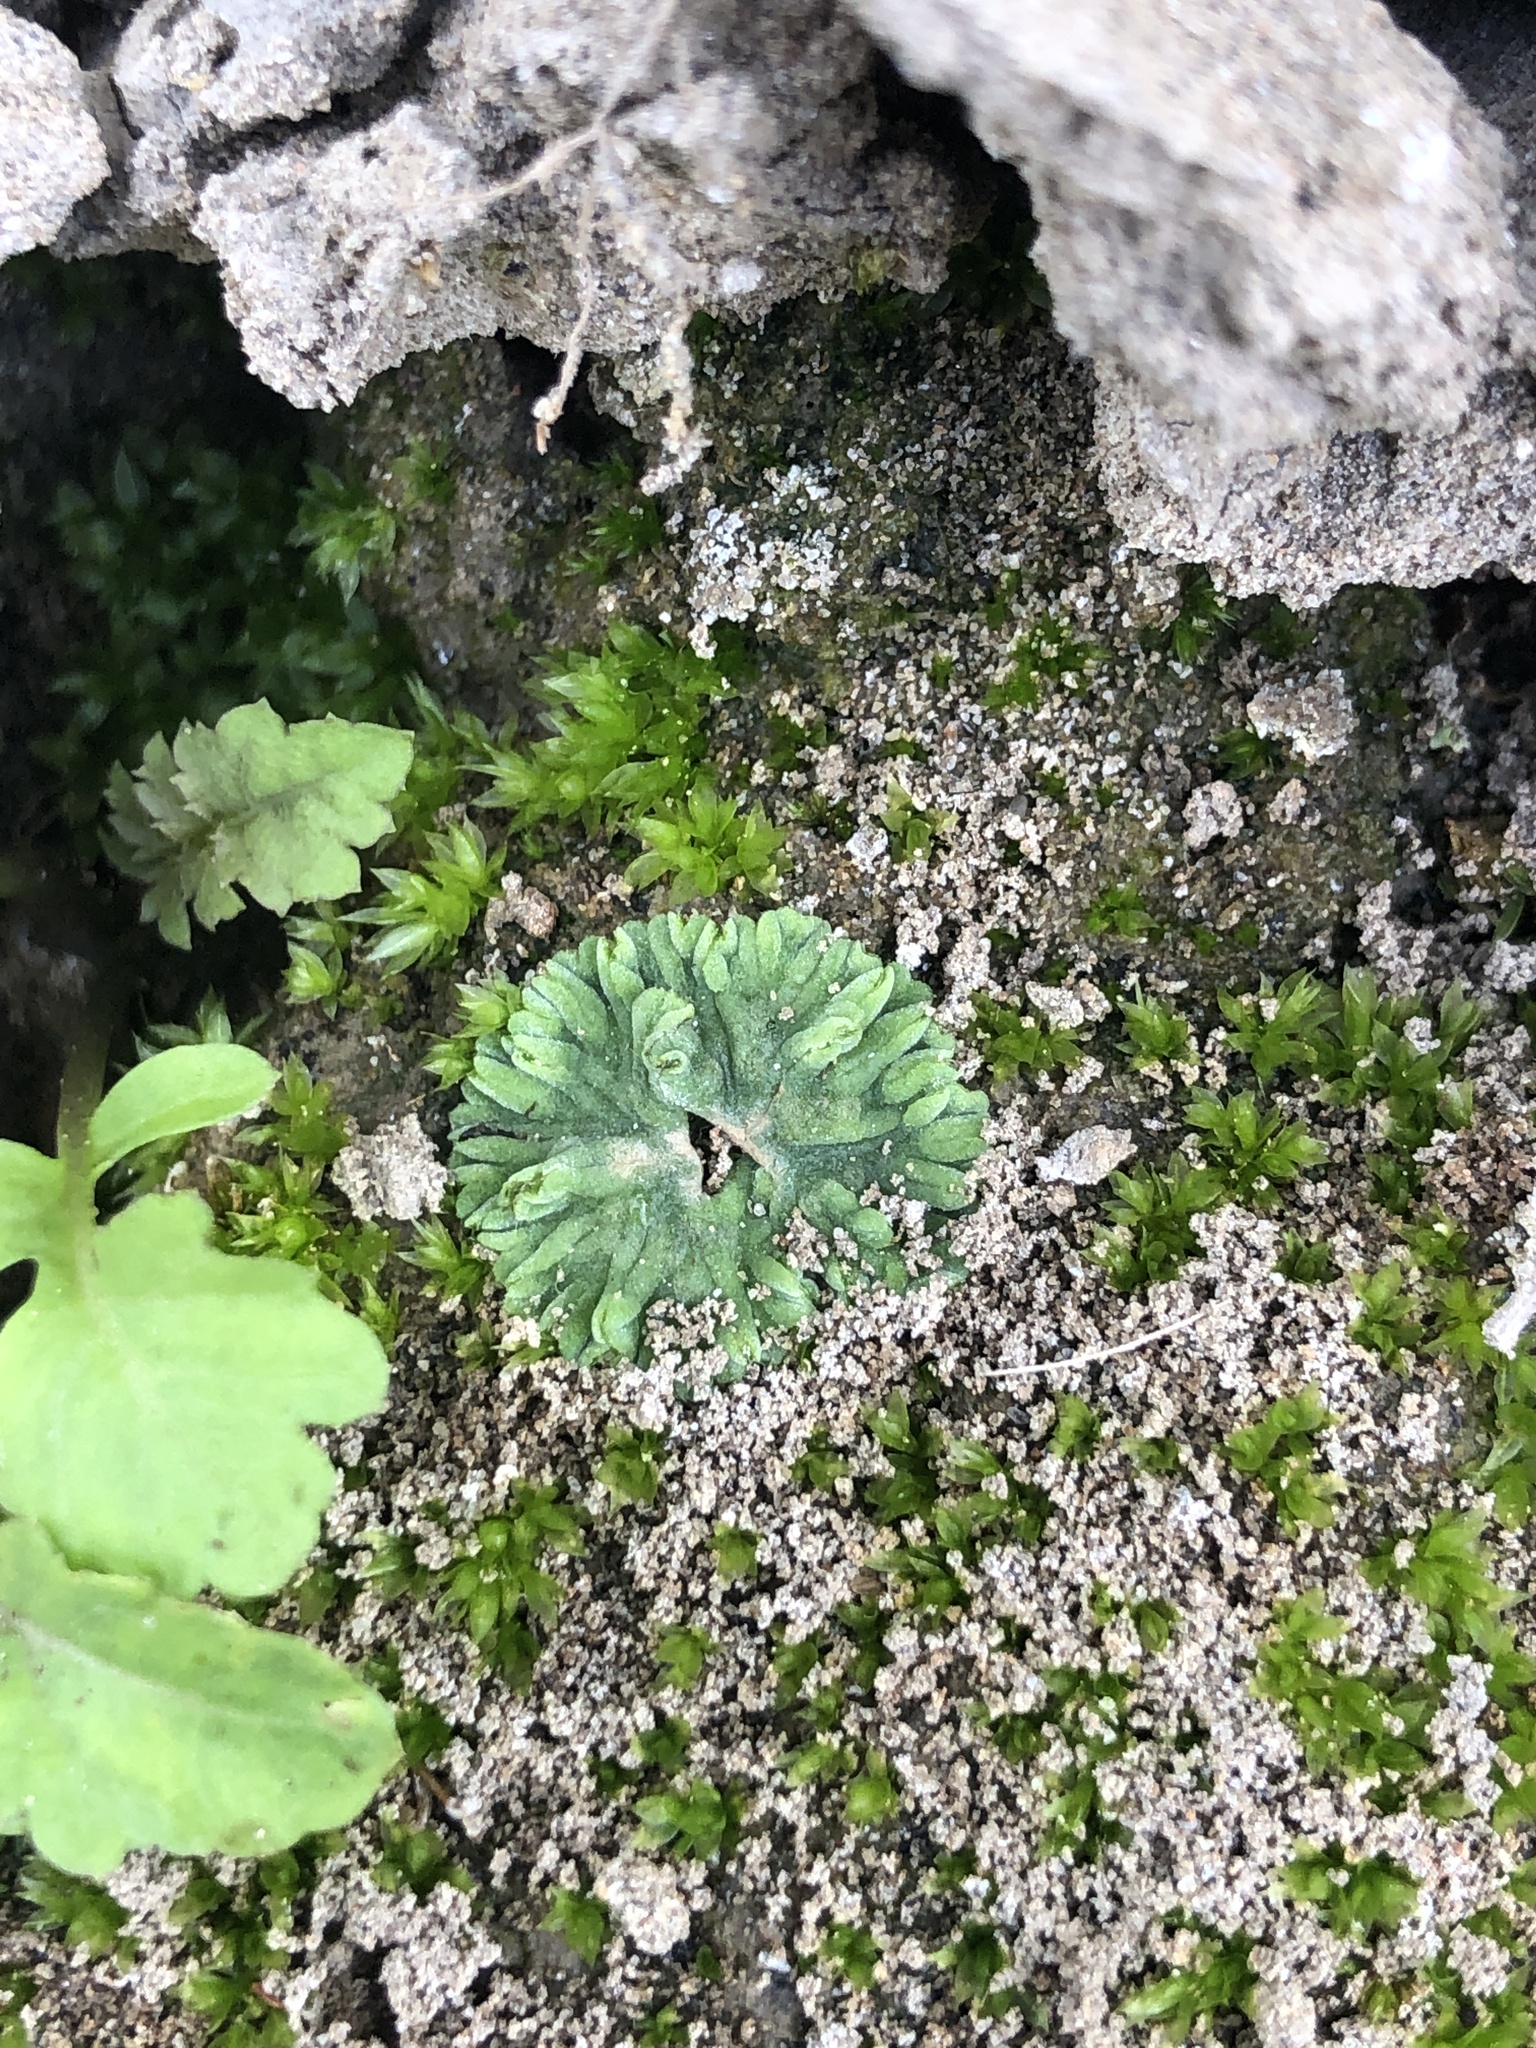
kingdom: Plantae
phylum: Marchantiophyta
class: Marchantiopsida
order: Marchantiales
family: Ricciaceae
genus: Riccia
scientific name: Riccia sorocarpa
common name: Common crystalwort
